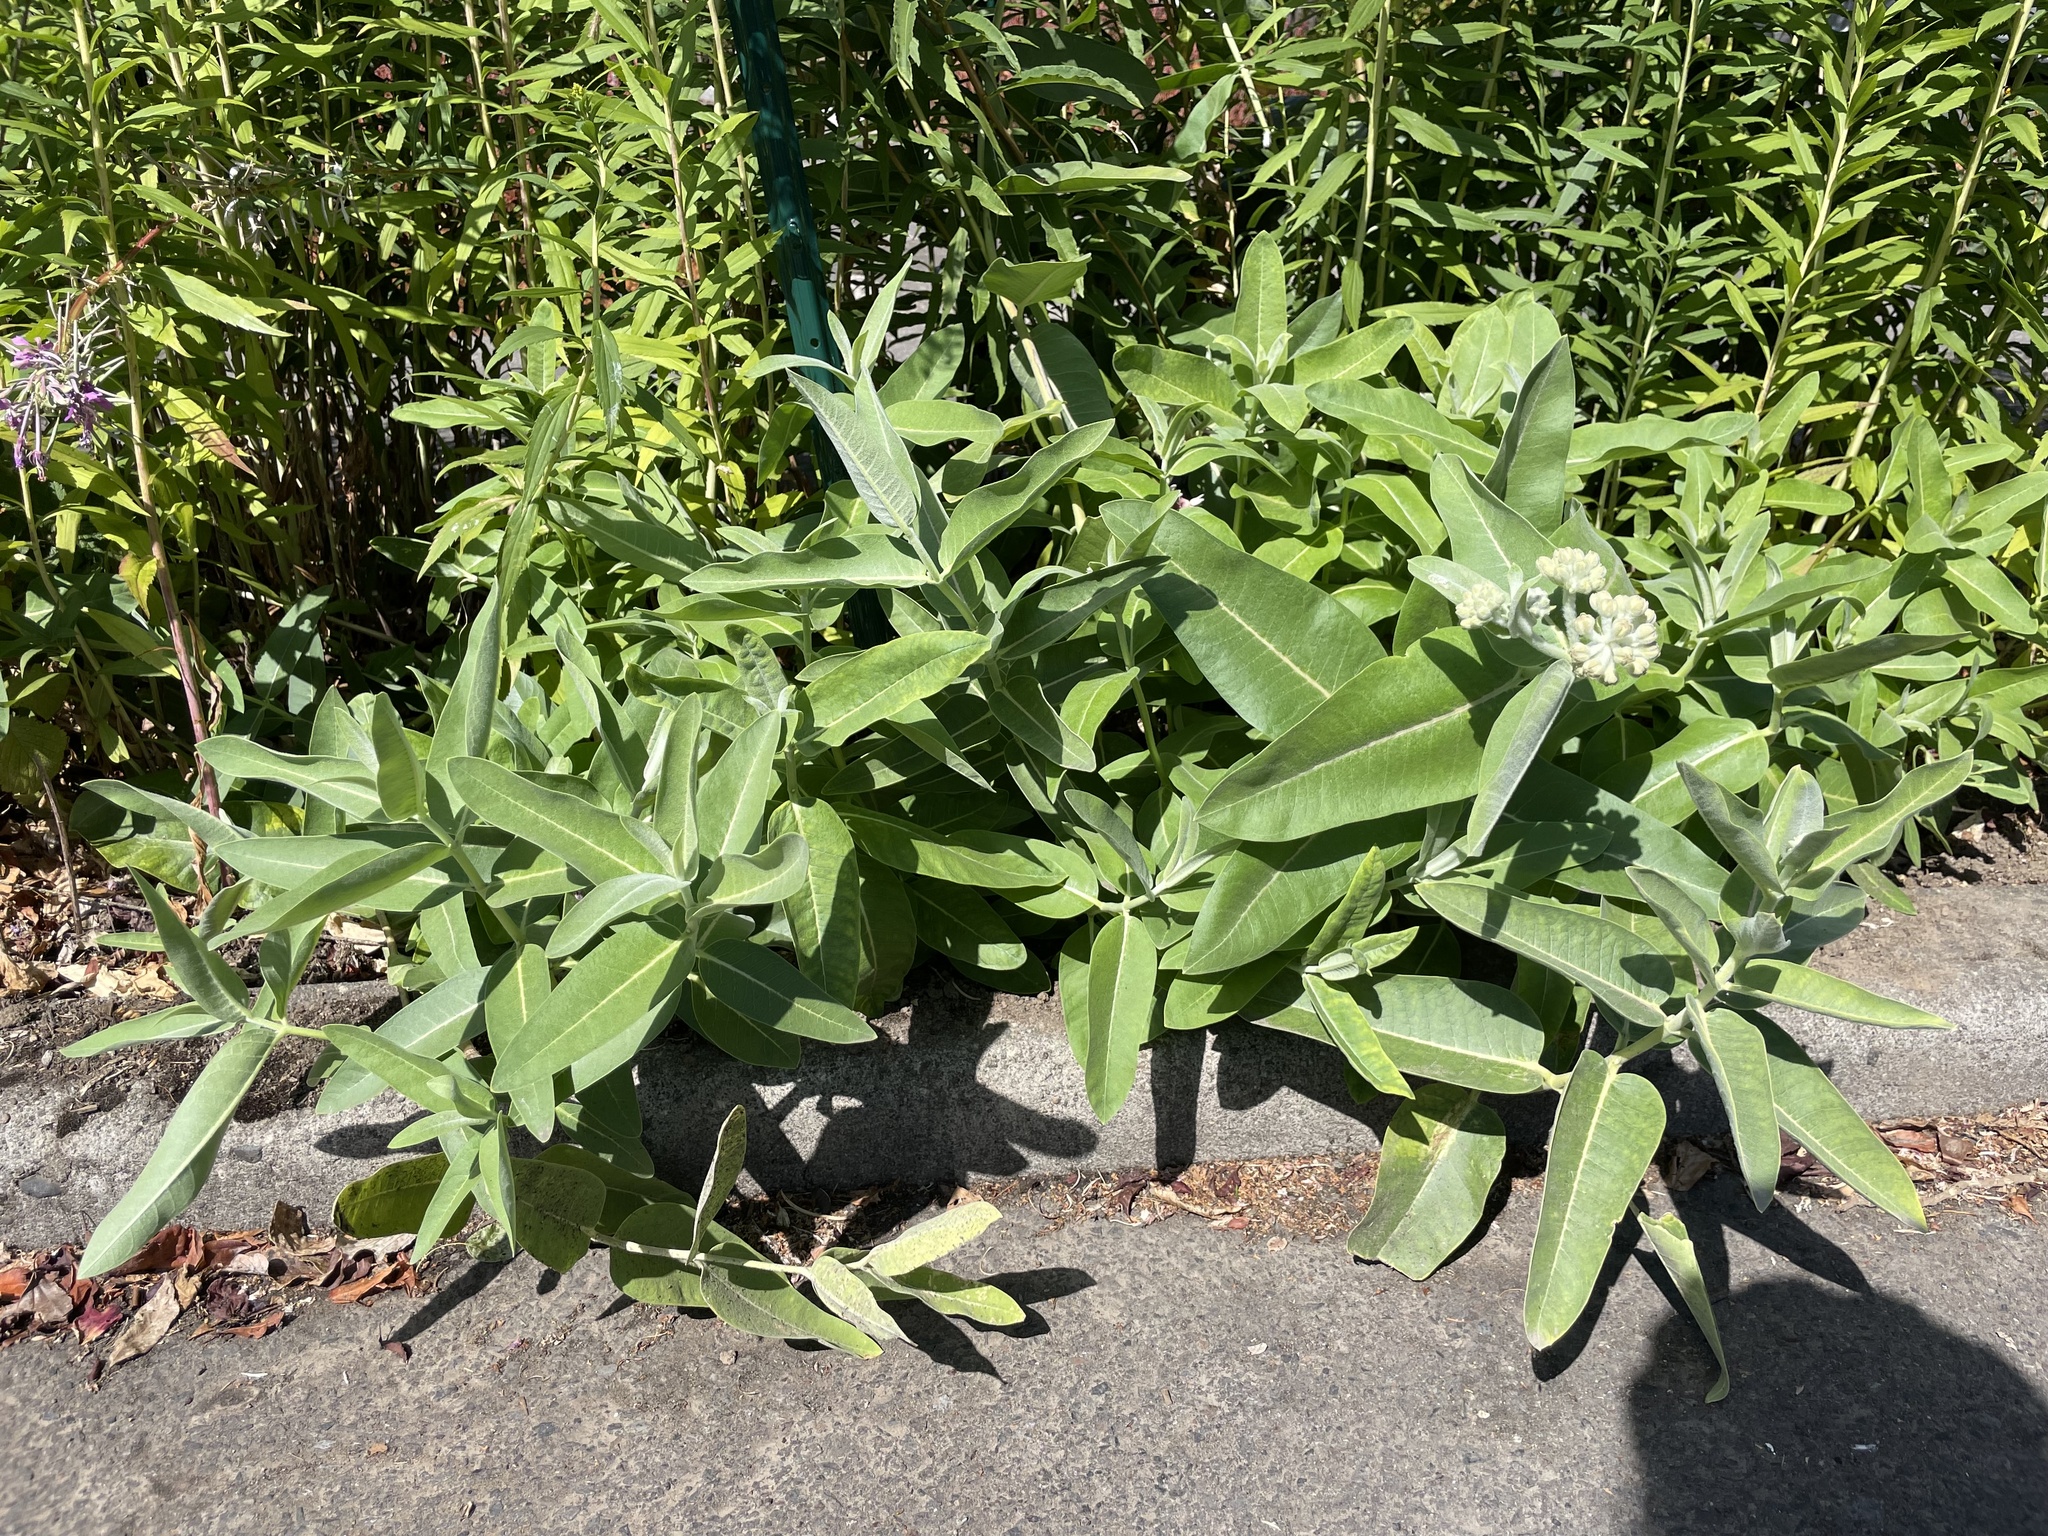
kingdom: Plantae
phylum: Tracheophyta
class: Magnoliopsida
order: Gentianales
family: Apocynaceae
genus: Asclepias
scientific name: Asclepias speciosa
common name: Showy milkweed
